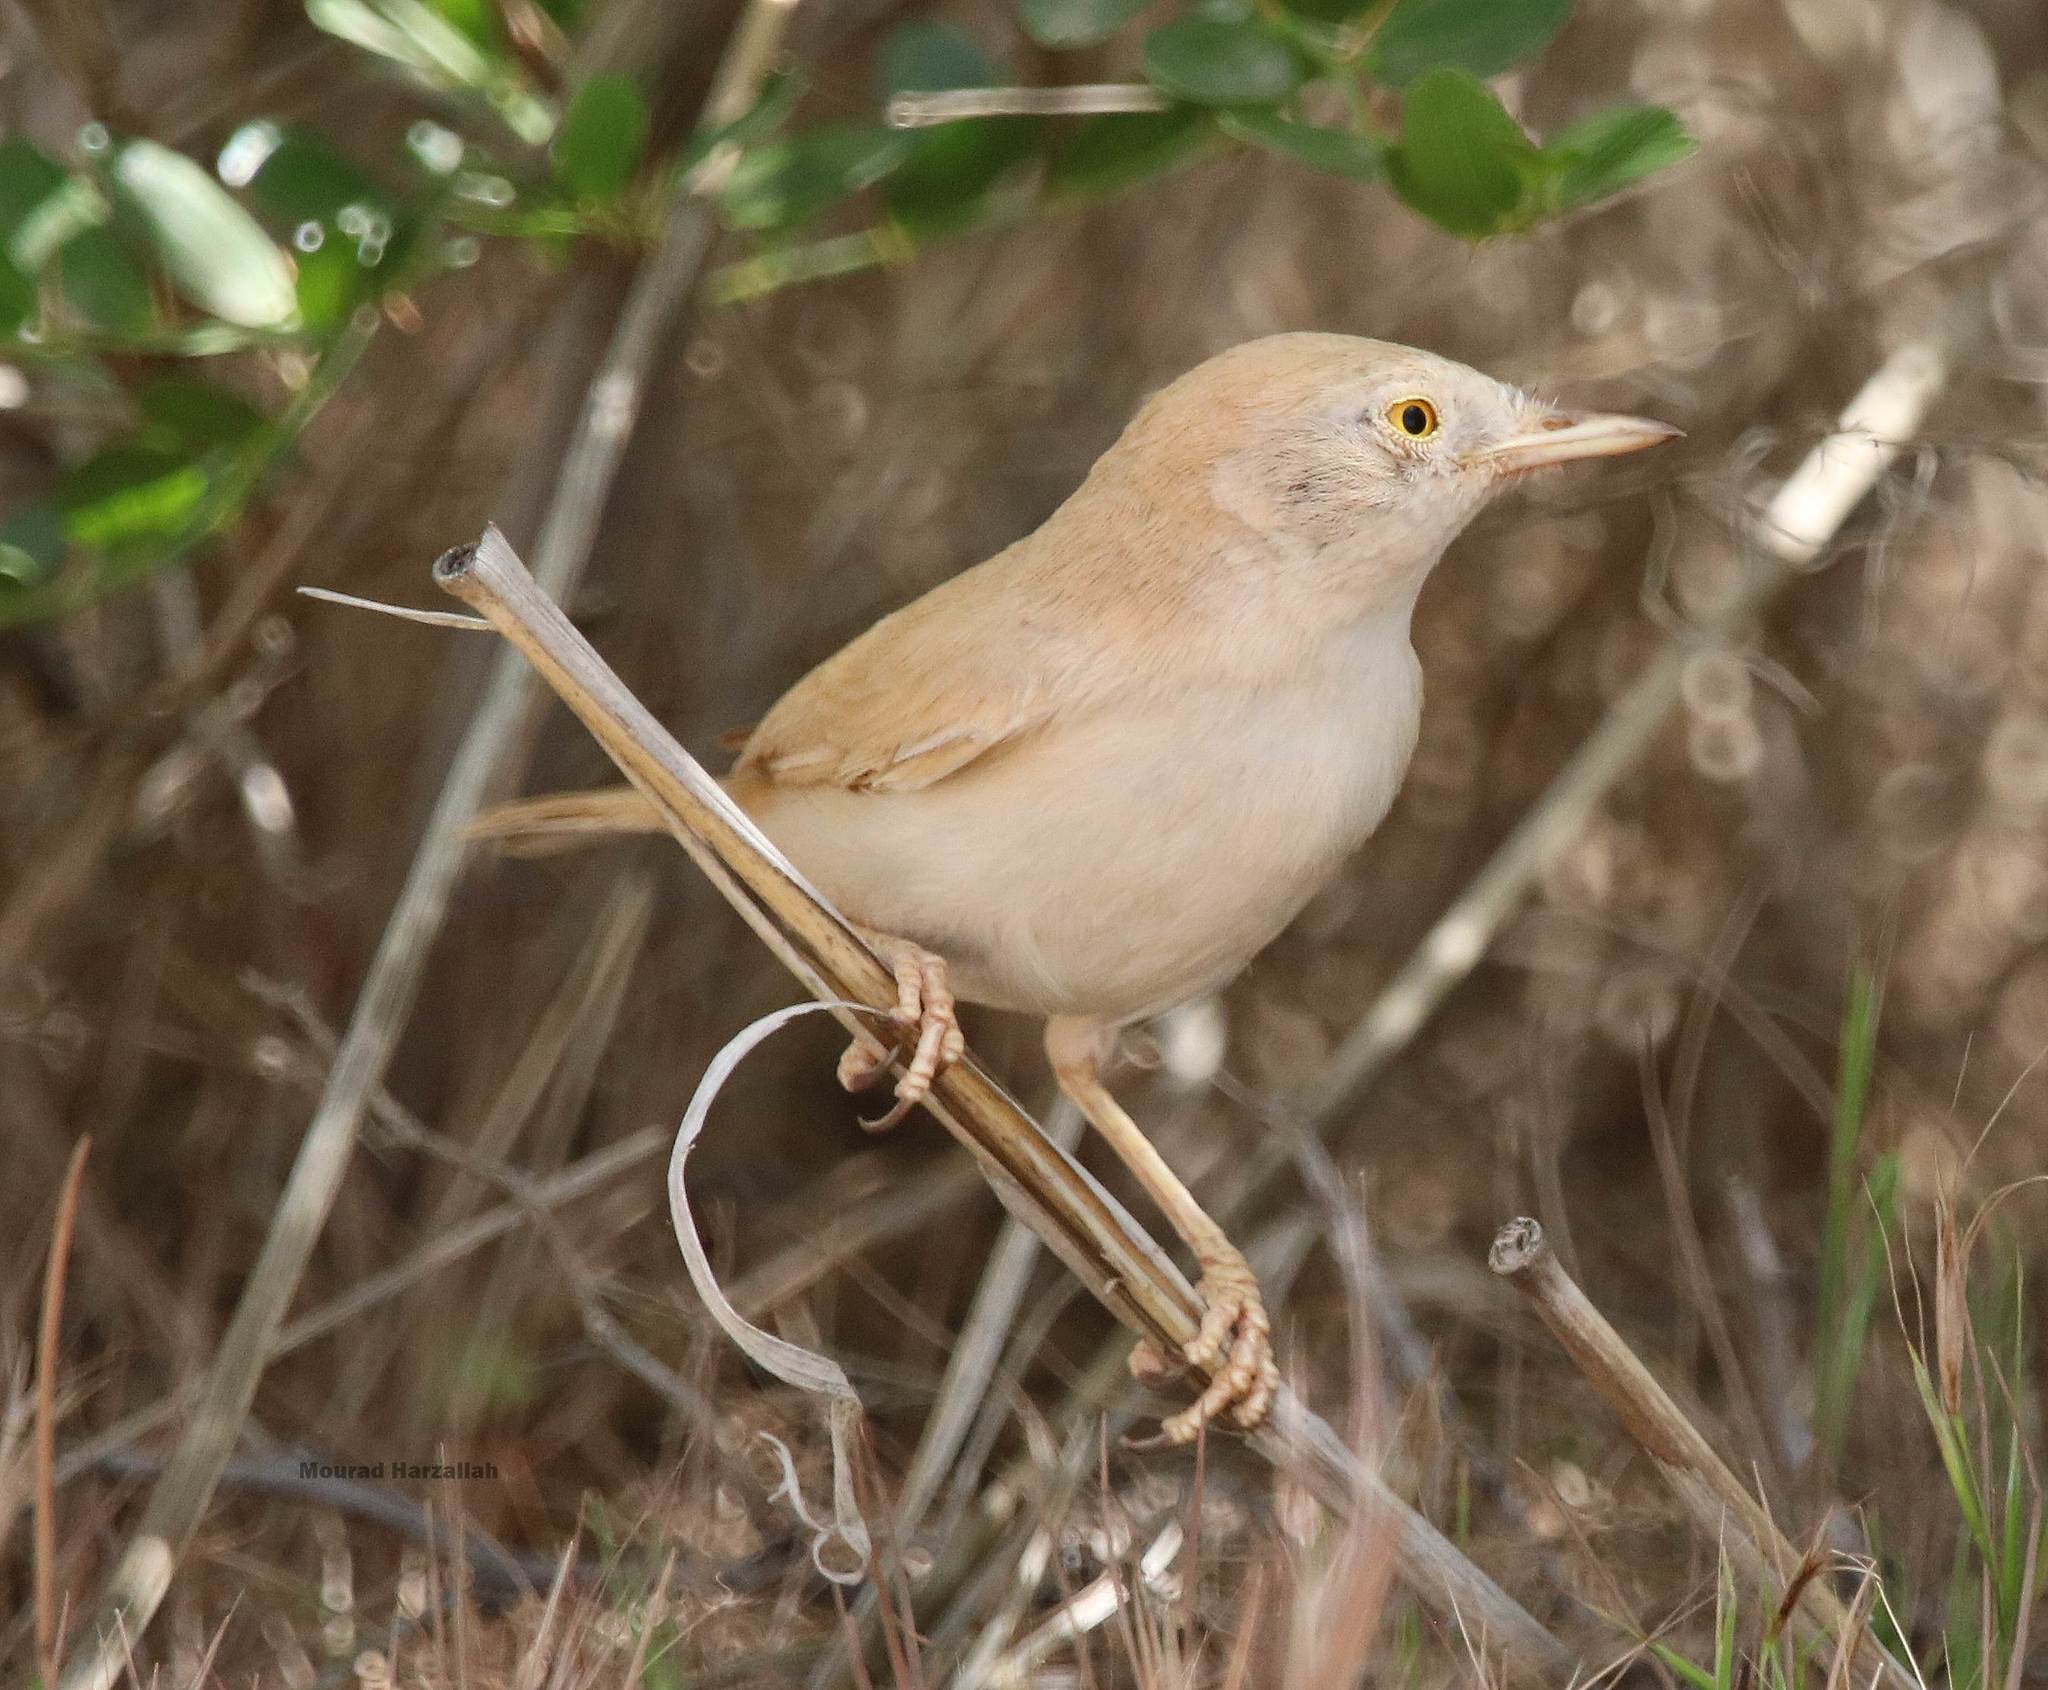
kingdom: Animalia
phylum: Chordata
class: Aves
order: Passeriformes
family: Sylviidae
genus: Sylvia
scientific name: Sylvia deserti
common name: African desert warbler
